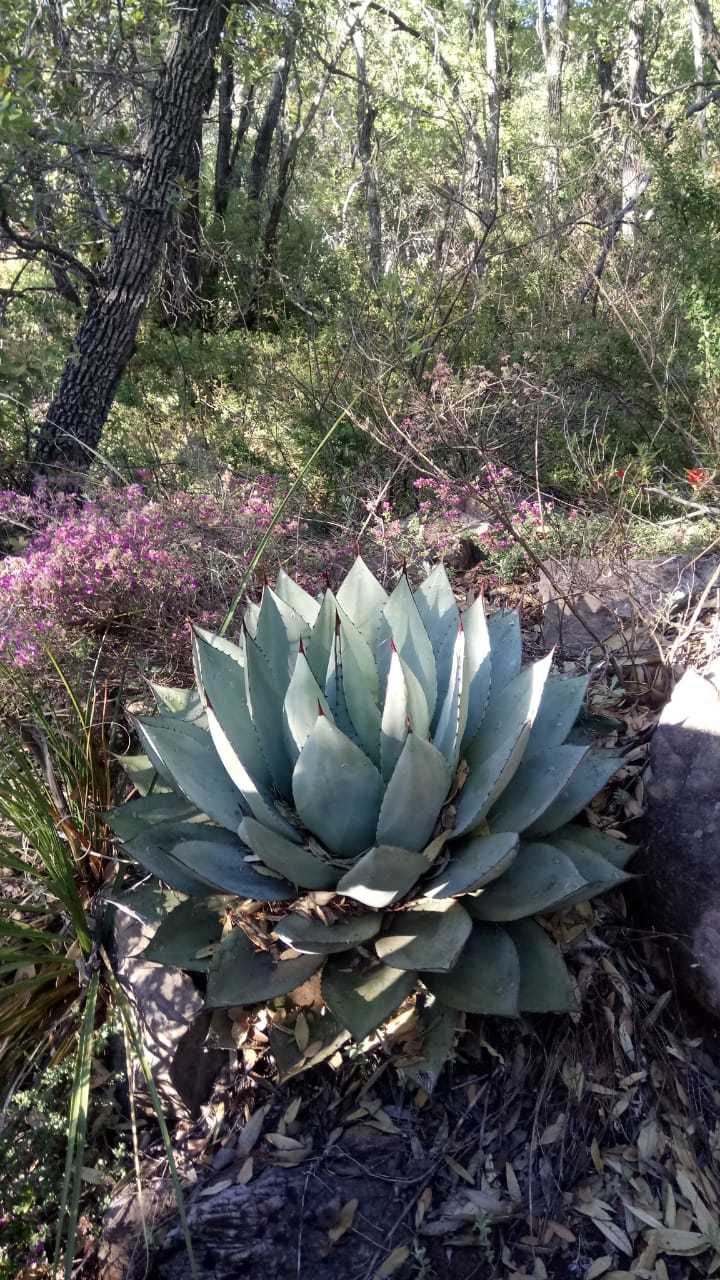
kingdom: Plantae
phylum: Tracheophyta
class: Liliopsida
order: Asparagales
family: Asparagaceae
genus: Agave
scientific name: Agave parryi
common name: Parry's agave
